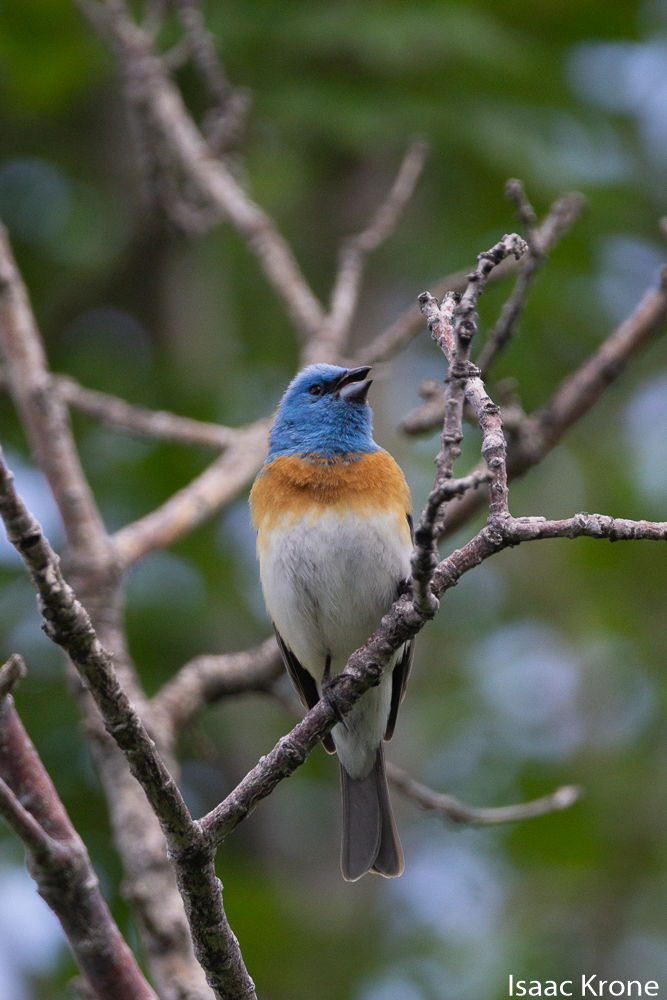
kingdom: Animalia
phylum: Chordata
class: Aves
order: Passeriformes
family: Cardinalidae
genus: Passerina
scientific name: Passerina amoena
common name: Lazuli bunting
